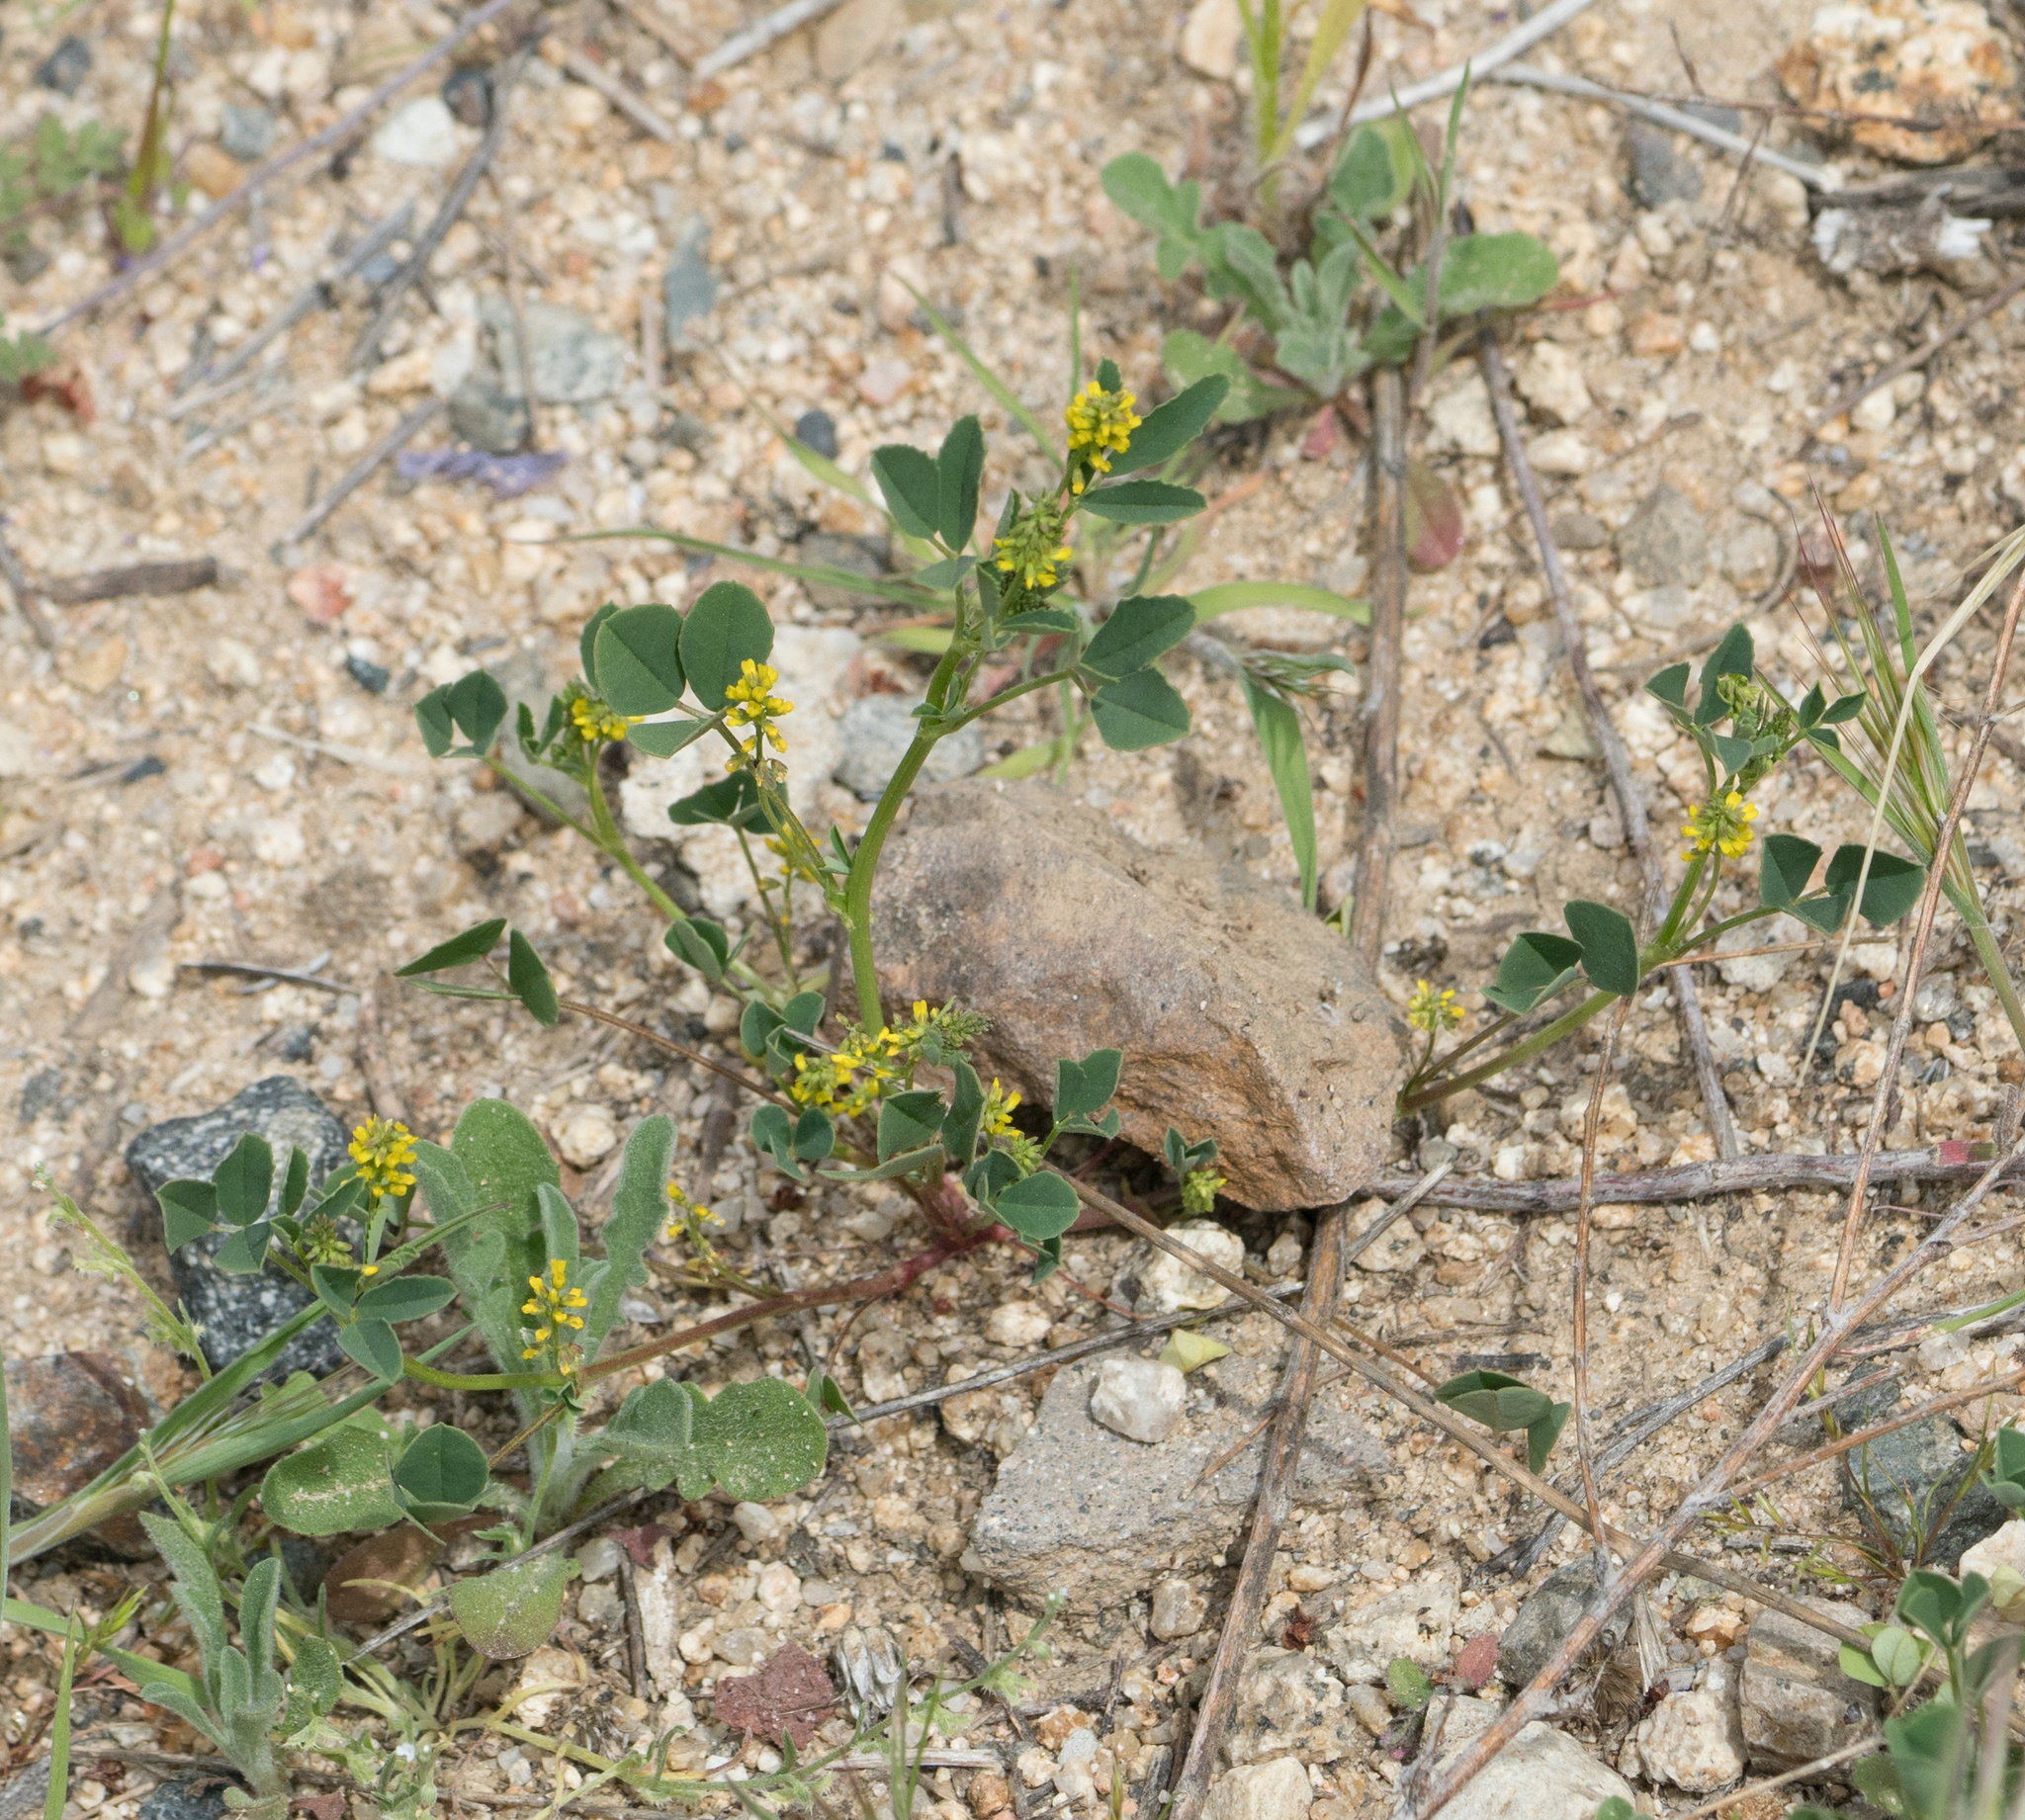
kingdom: Plantae
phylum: Tracheophyta
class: Magnoliopsida
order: Fabales
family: Fabaceae
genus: Melilotus
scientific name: Melilotus indicus
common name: Small melilot
